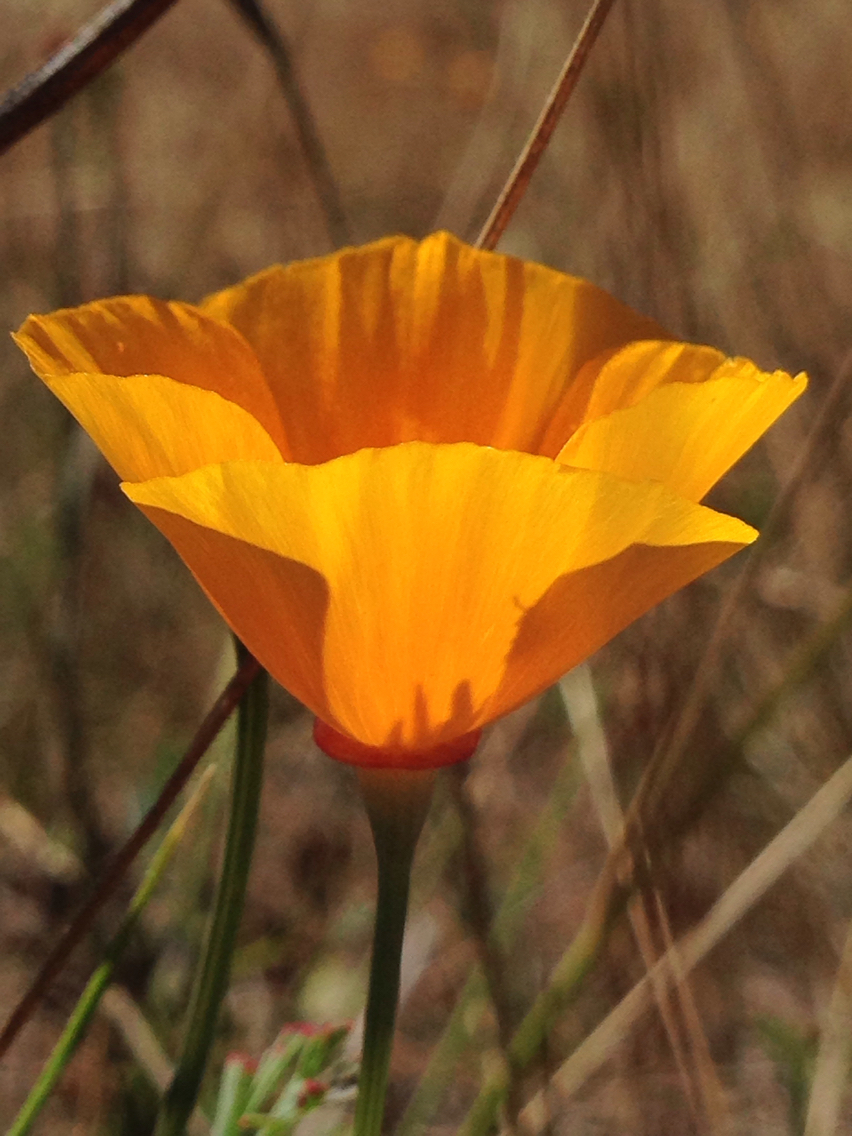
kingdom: Plantae
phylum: Tracheophyta
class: Magnoliopsida
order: Ranunculales
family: Papaveraceae
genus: Eschscholzia
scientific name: Eschscholzia californica
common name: California poppy
